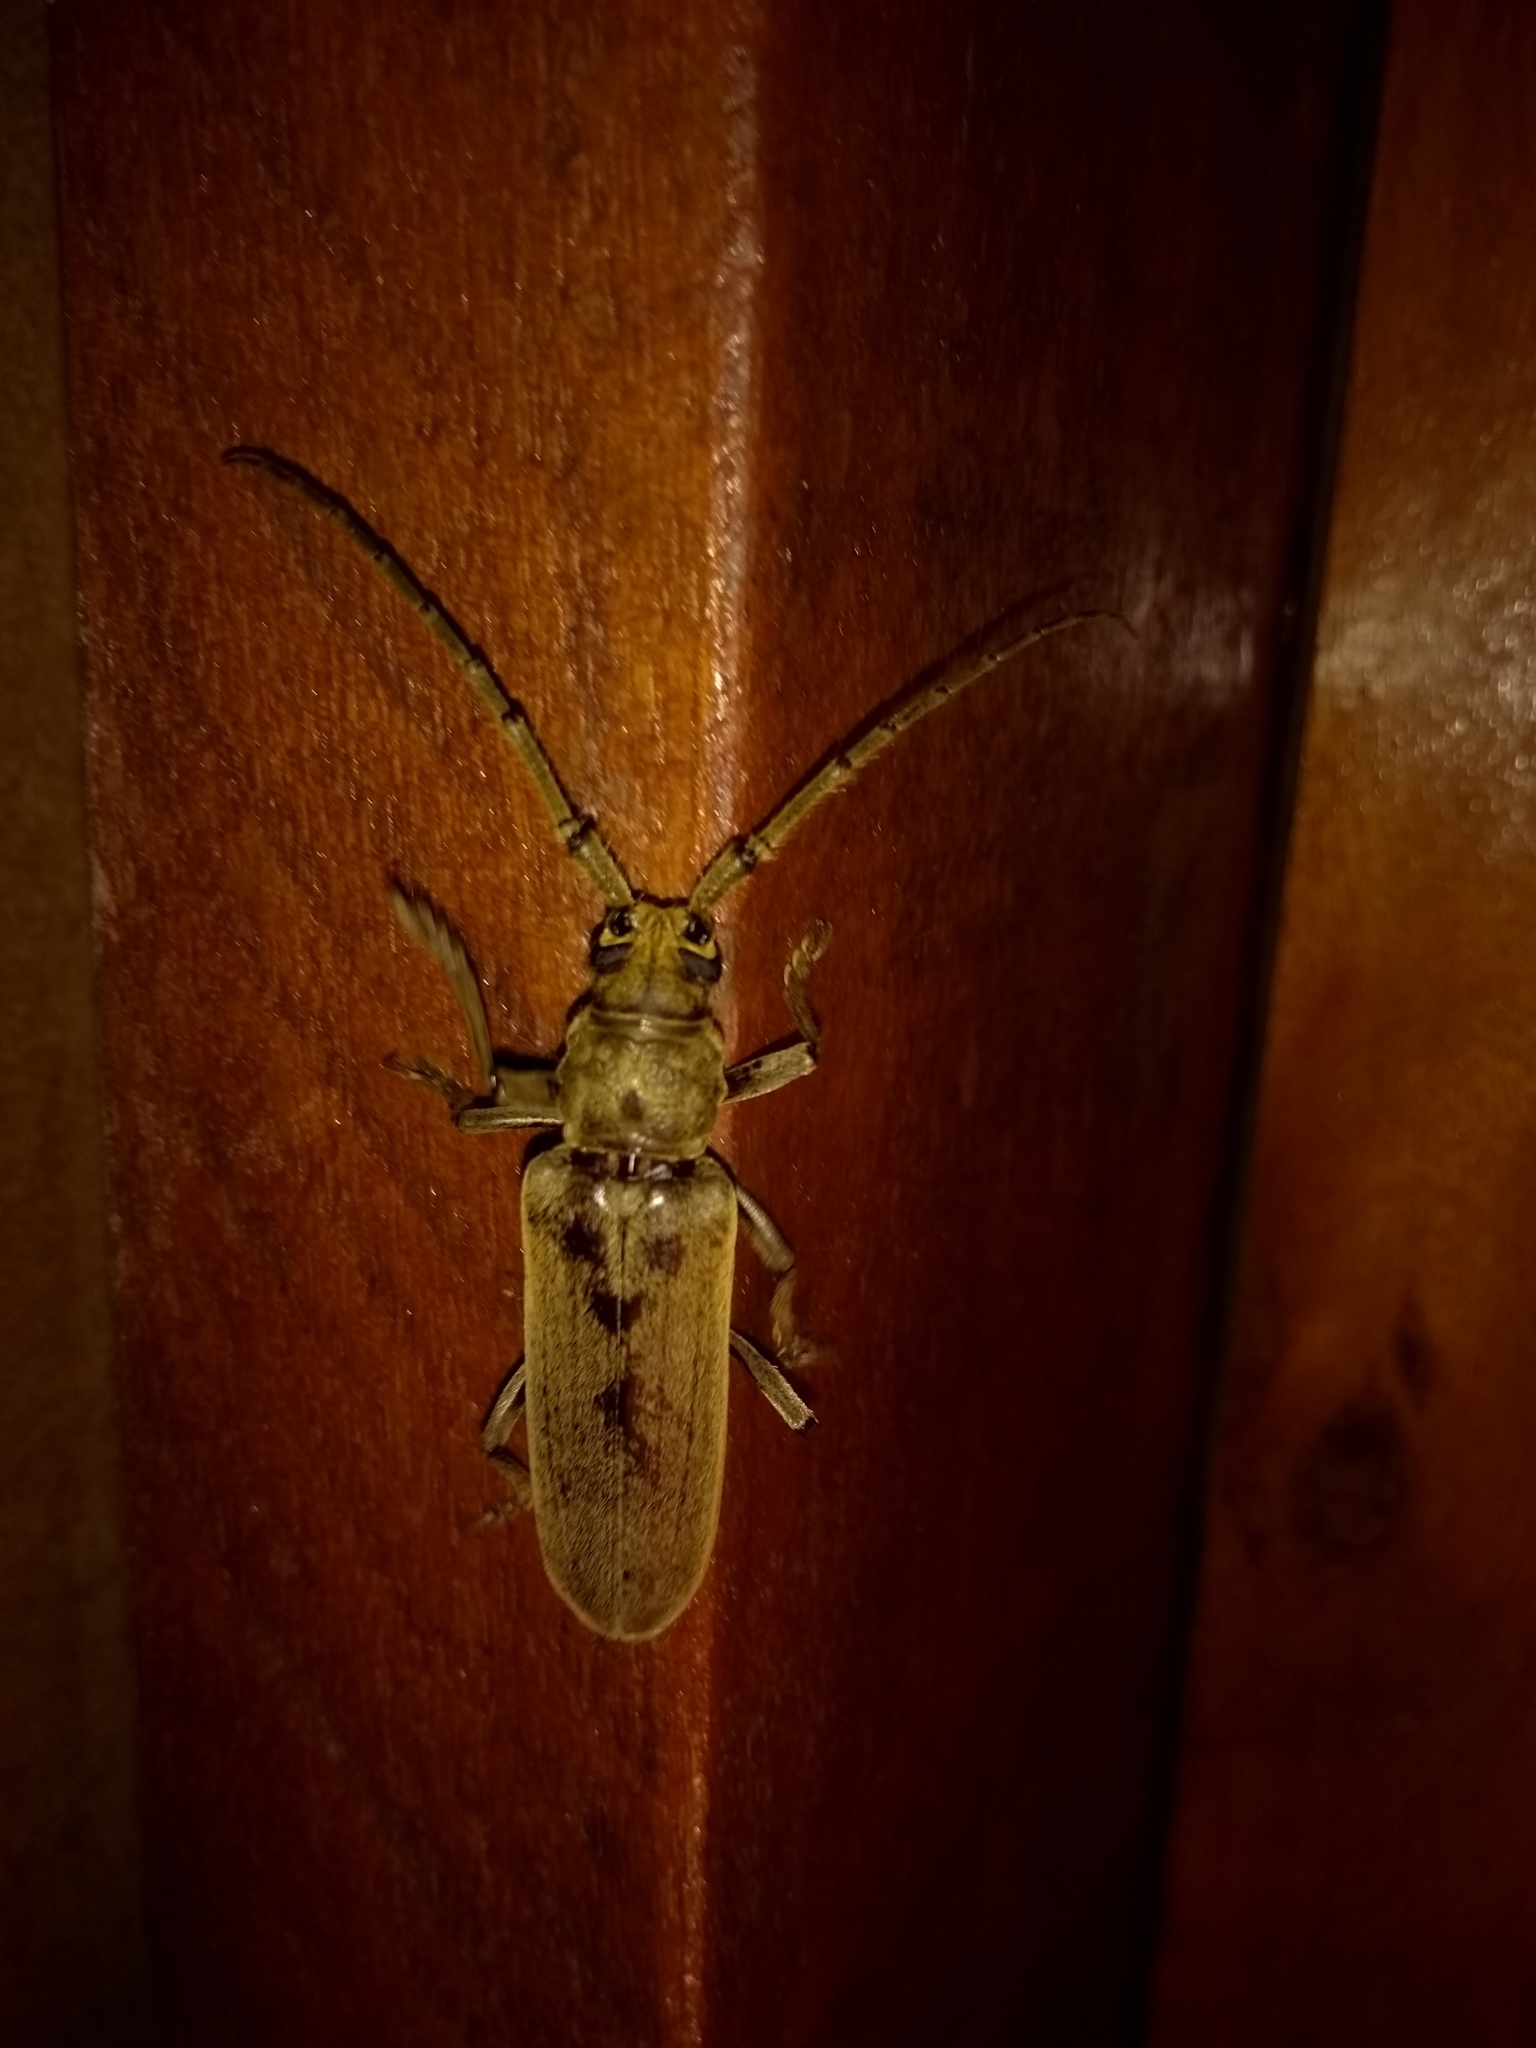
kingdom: Animalia
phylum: Arthropoda
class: Insecta
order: Coleoptera
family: Cerambycidae
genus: Criodion
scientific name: Criodion tomentosum
